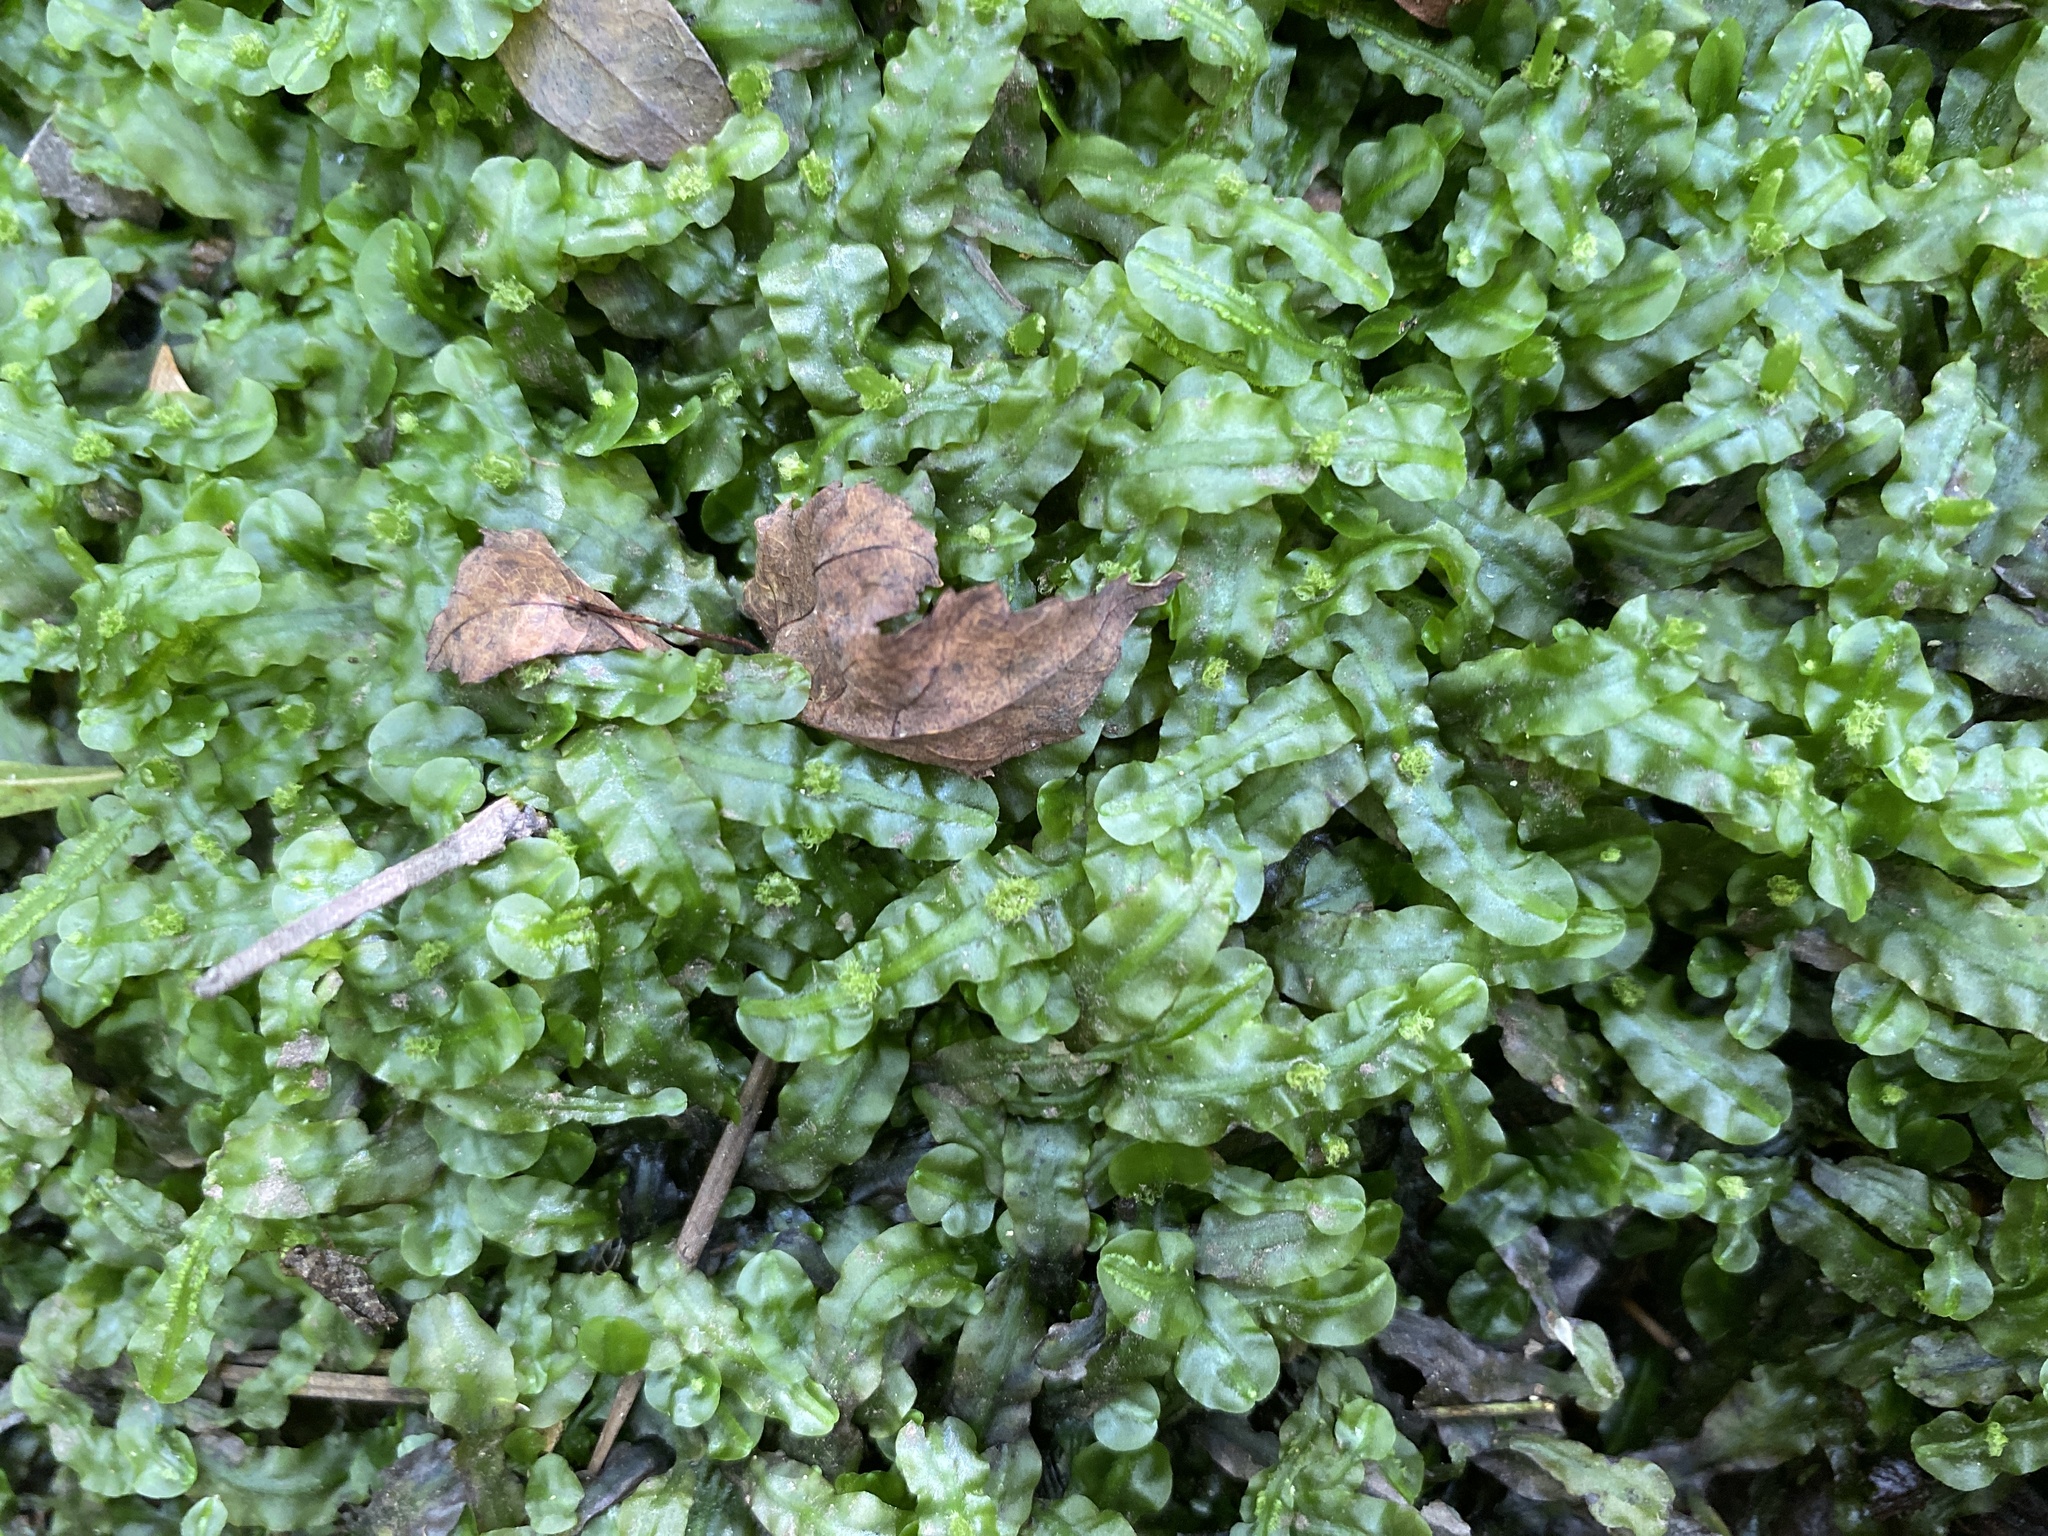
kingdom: Plantae
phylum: Marchantiophyta
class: Jungermanniopsida
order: Pallaviciniales
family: Pallaviciniaceae
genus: Pallavicinia
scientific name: Pallavicinia lyellii
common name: Veilwort
